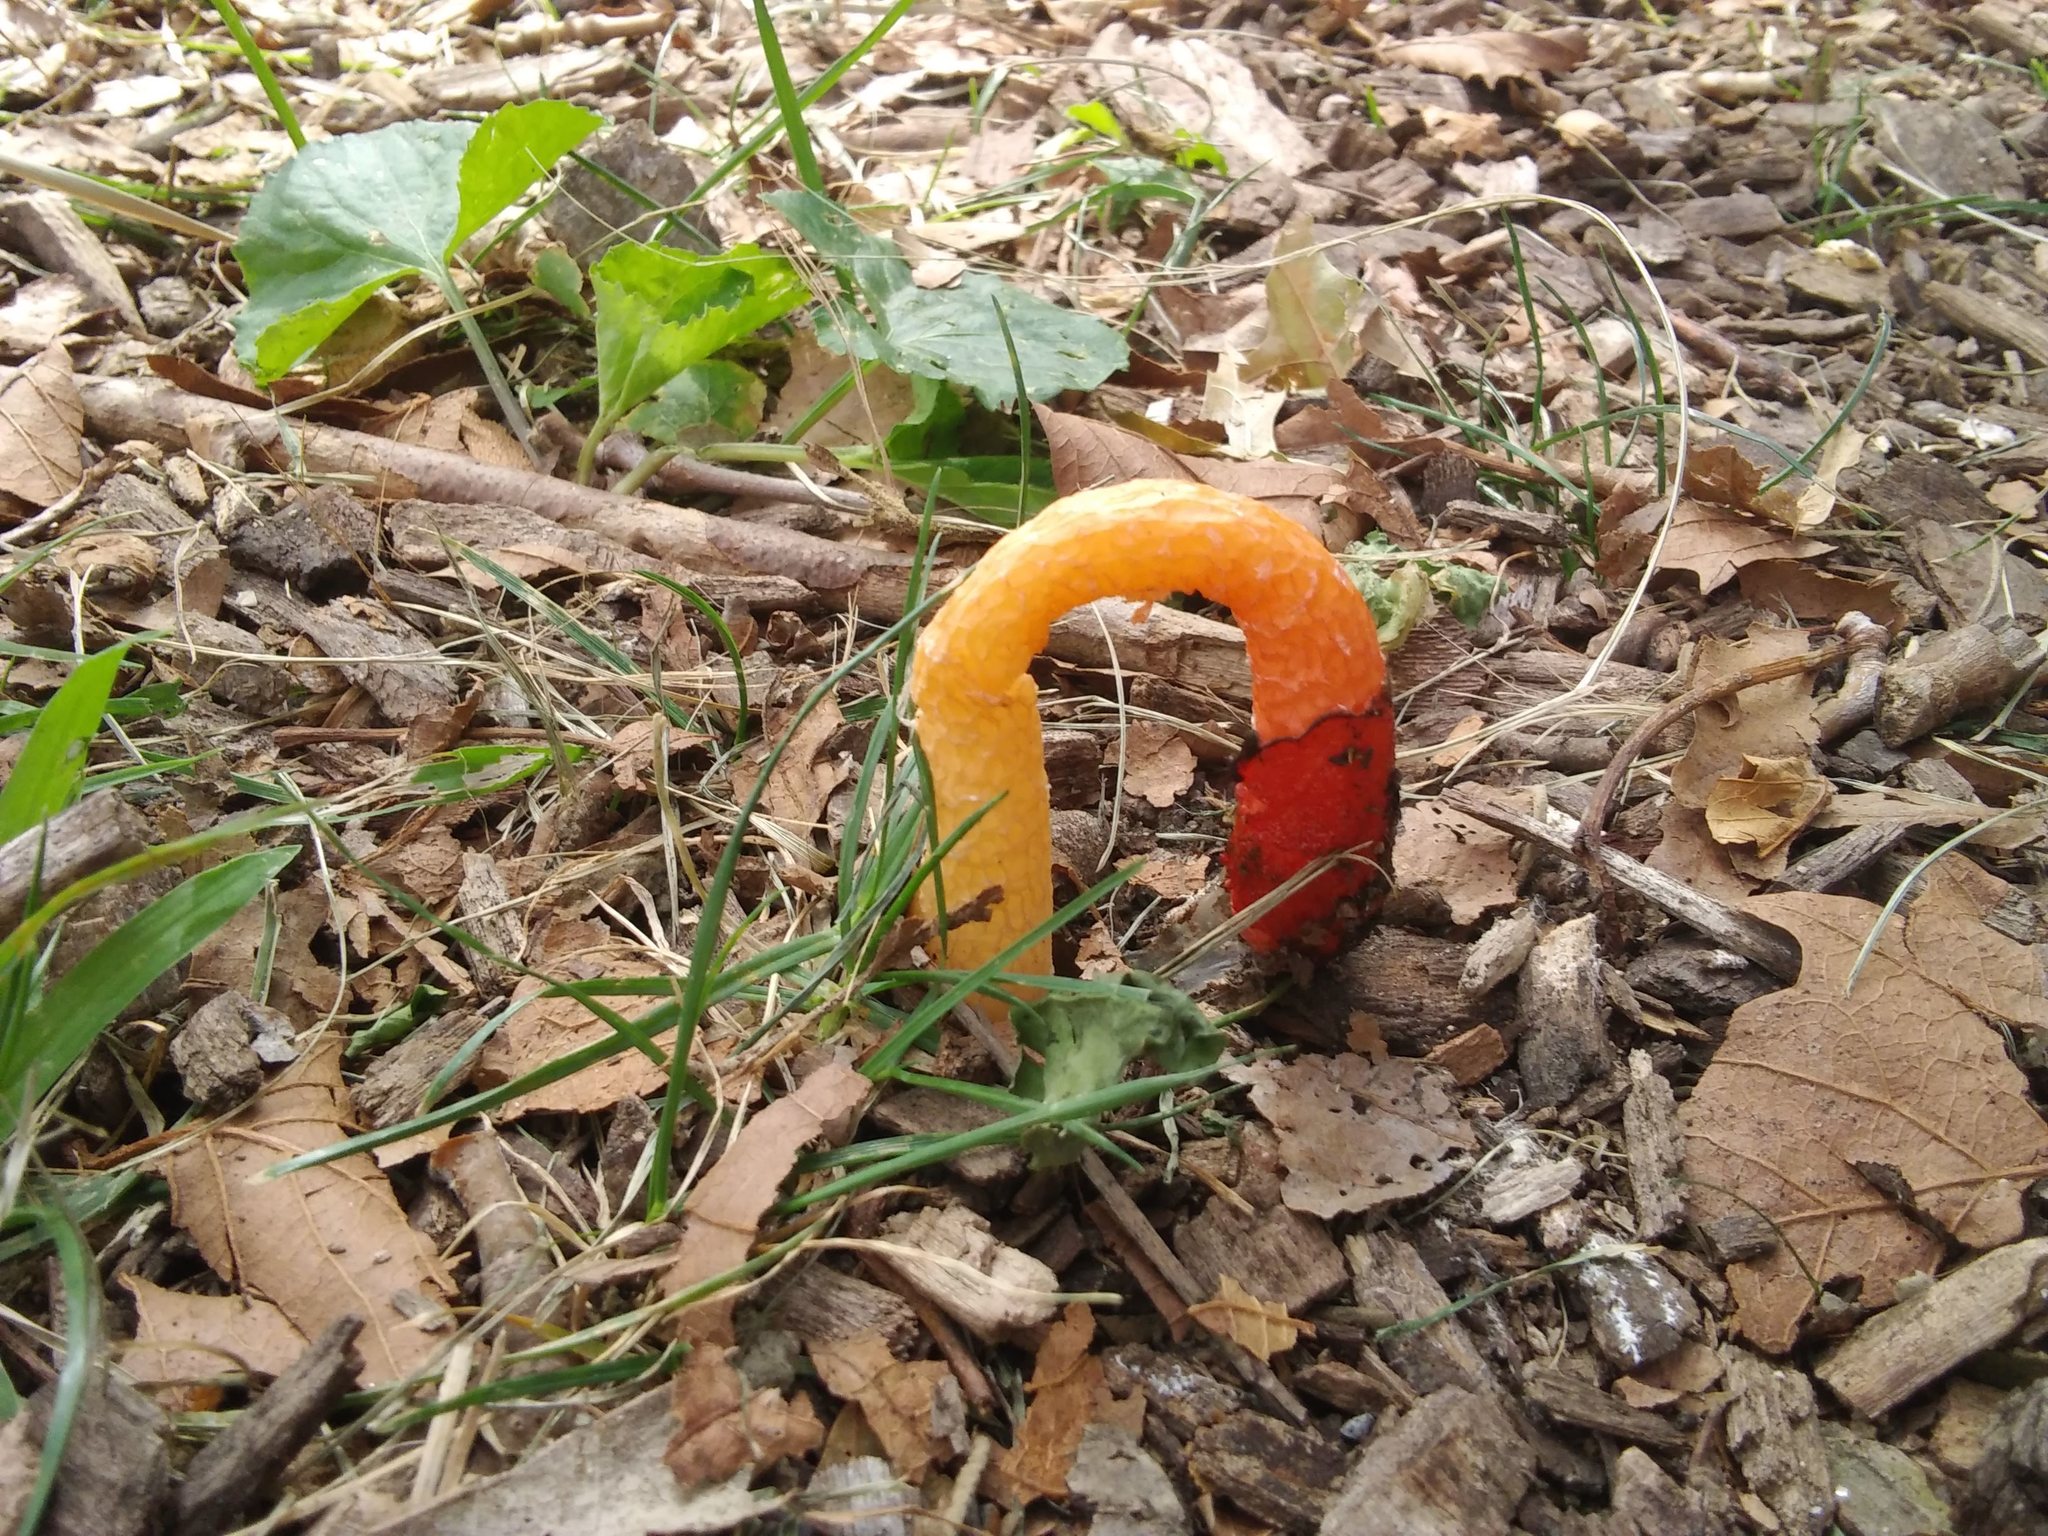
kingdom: Fungi
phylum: Basidiomycota
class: Agaricomycetes
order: Phallales
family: Phallaceae
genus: Phallus
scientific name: Phallus rugulosus
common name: Wrinkly stinkhorn
